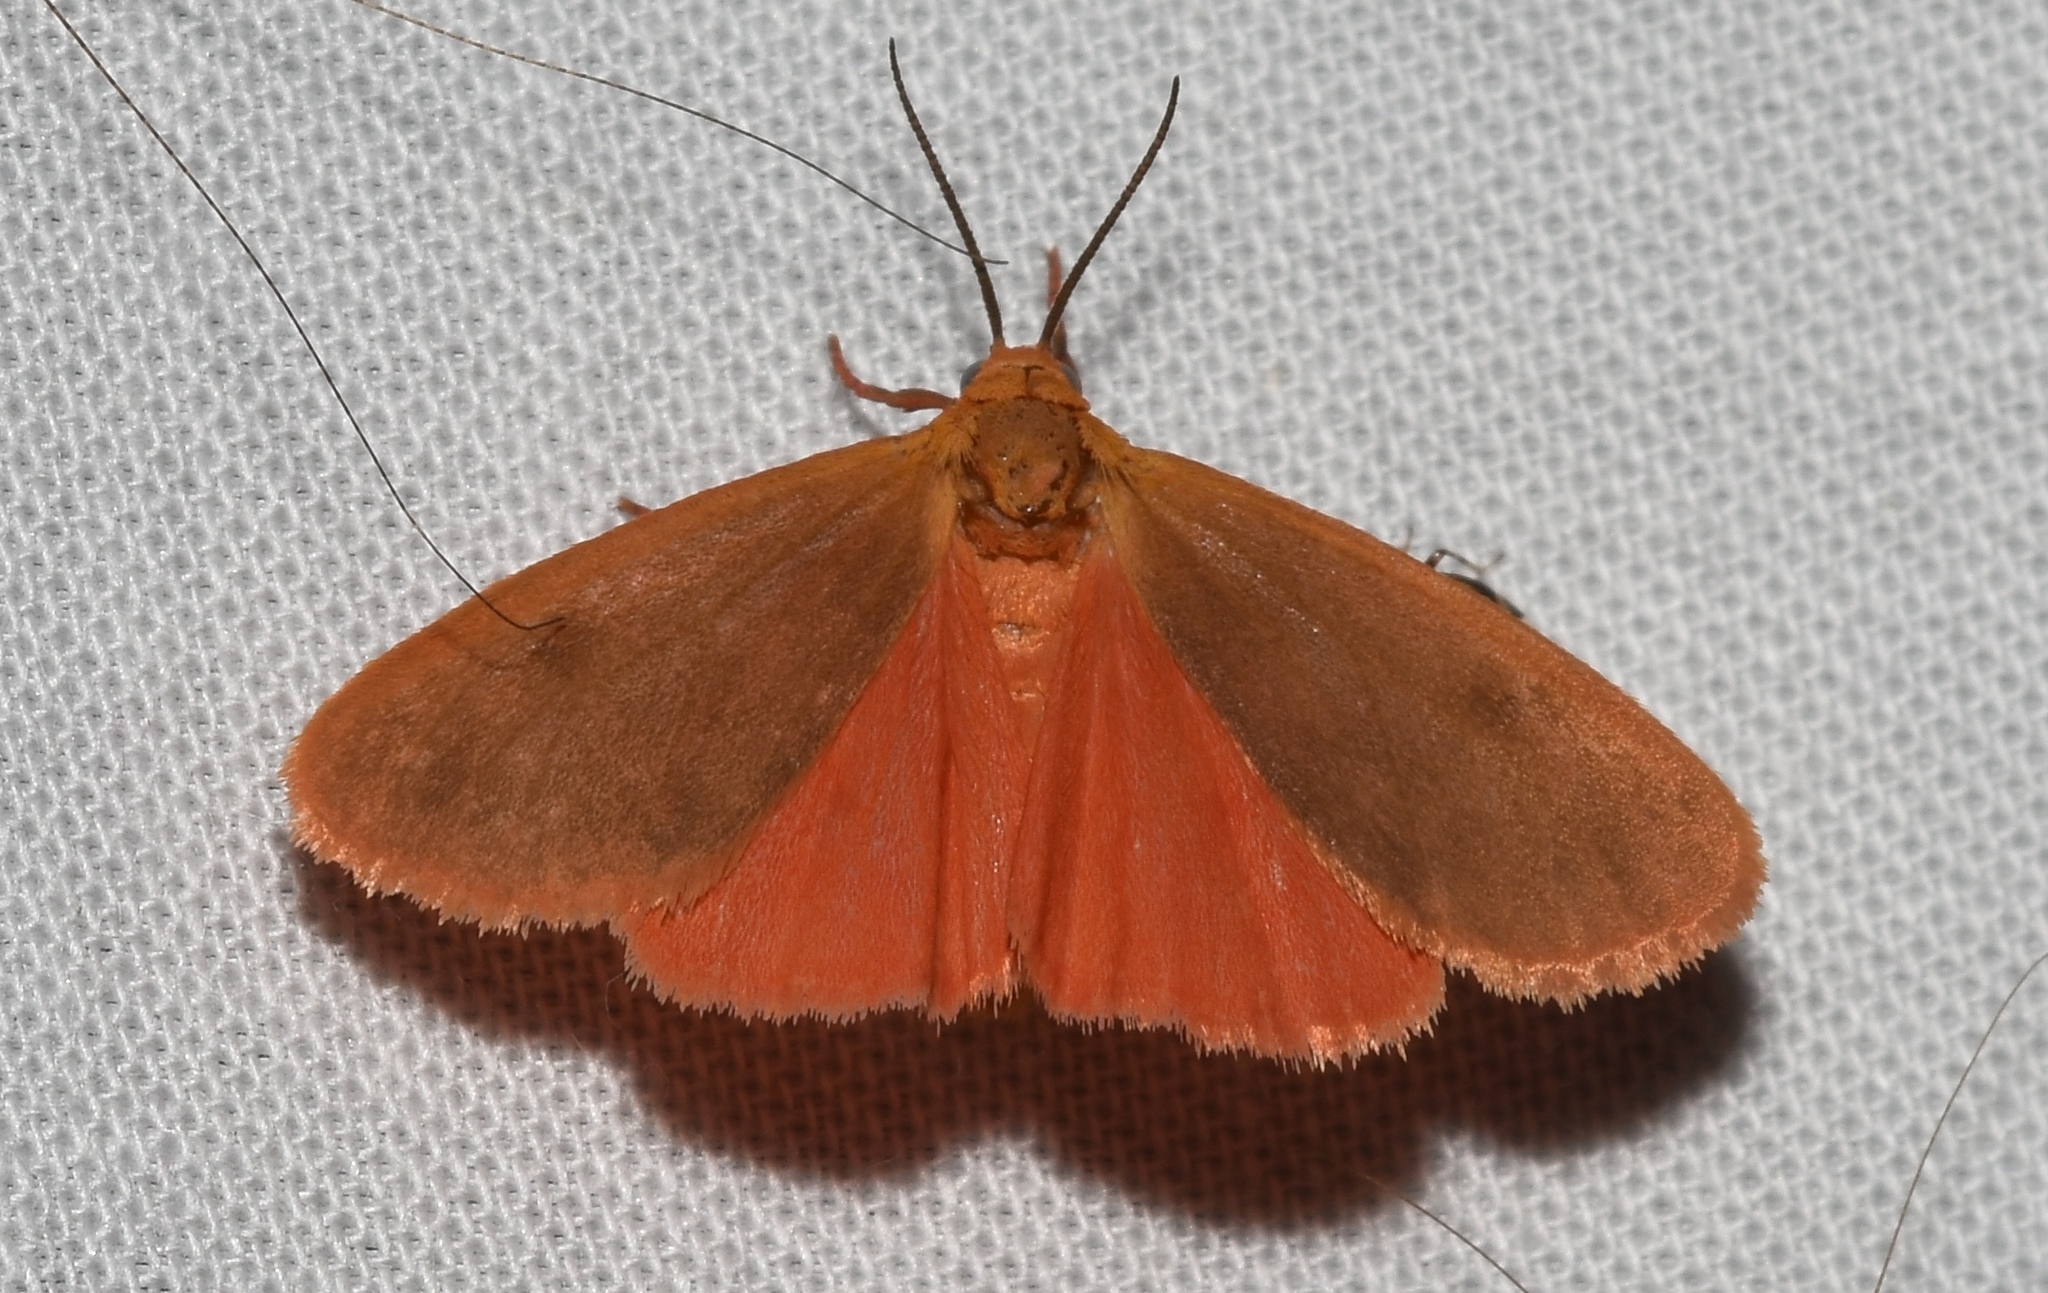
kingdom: Animalia
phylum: Arthropoda
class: Insecta
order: Lepidoptera
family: Erebidae
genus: Virbia
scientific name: Virbia immaculata
